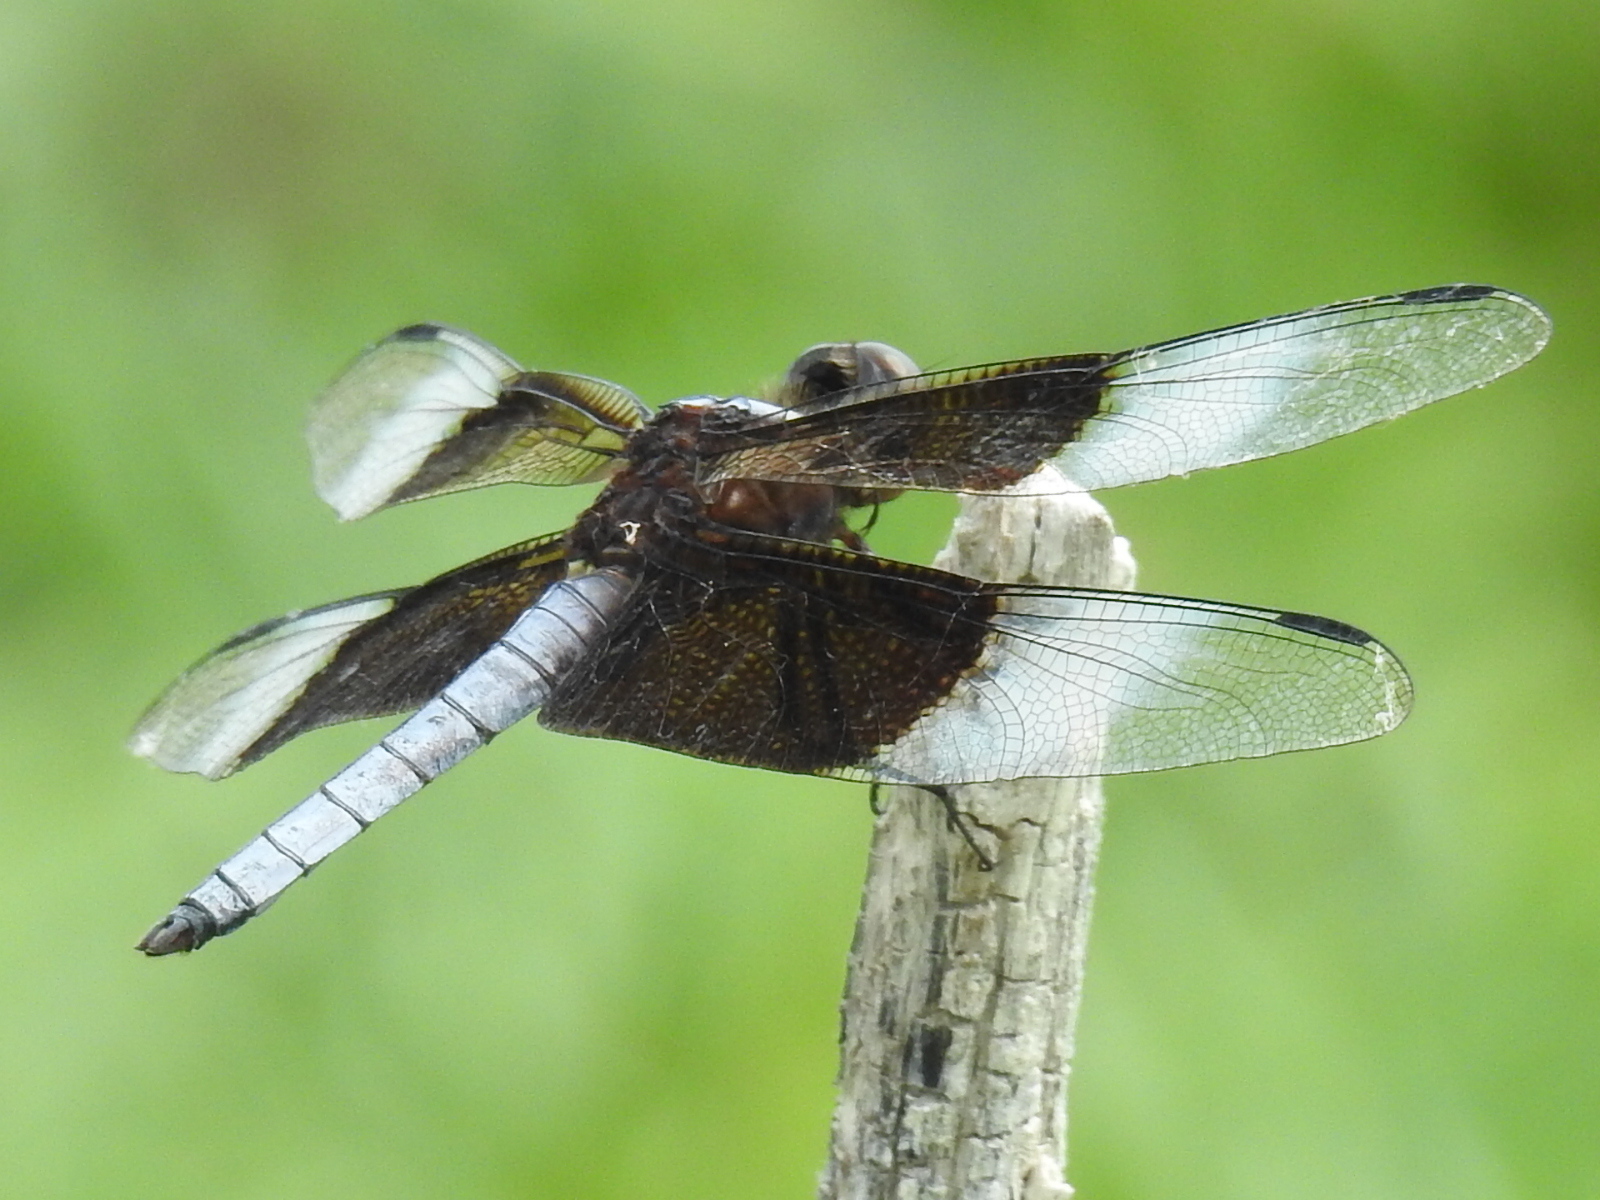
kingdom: Animalia
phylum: Arthropoda
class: Insecta
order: Odonata
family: Libellulidae
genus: Libellula
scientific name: Libellula luctuosa
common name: Widow skimmer
